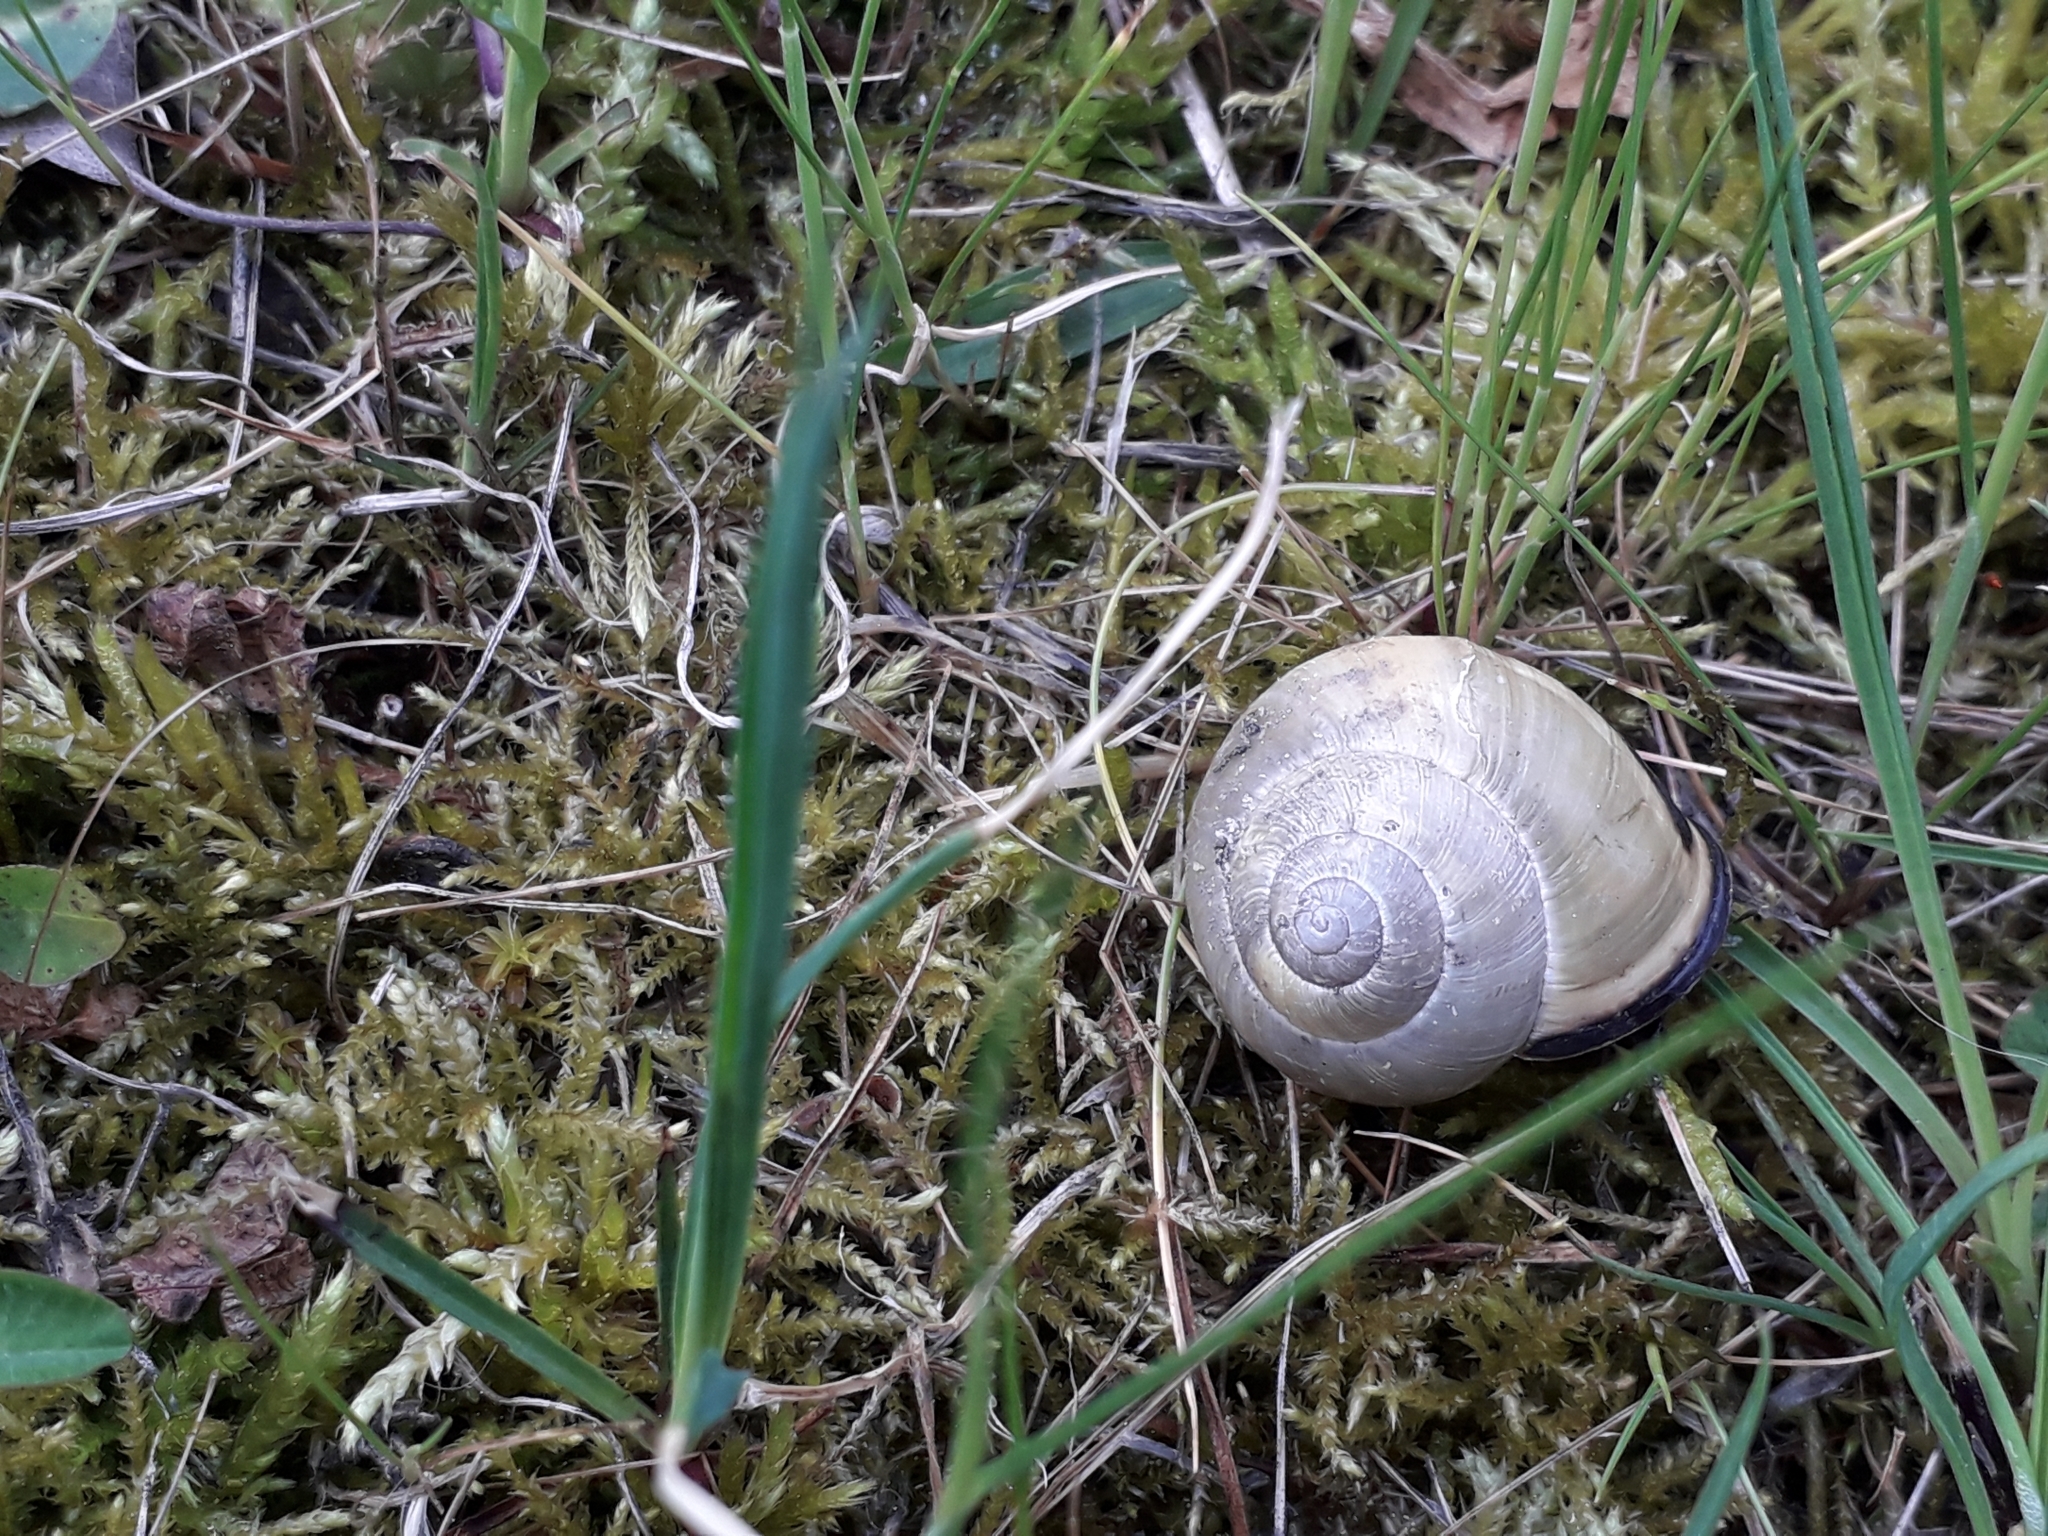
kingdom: Animalia
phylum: Mollusca
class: Gastropoda
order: Stylommatophora
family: Helicidae
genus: Cepaea
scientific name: Cepaea nemoralis
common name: Grovesnail
